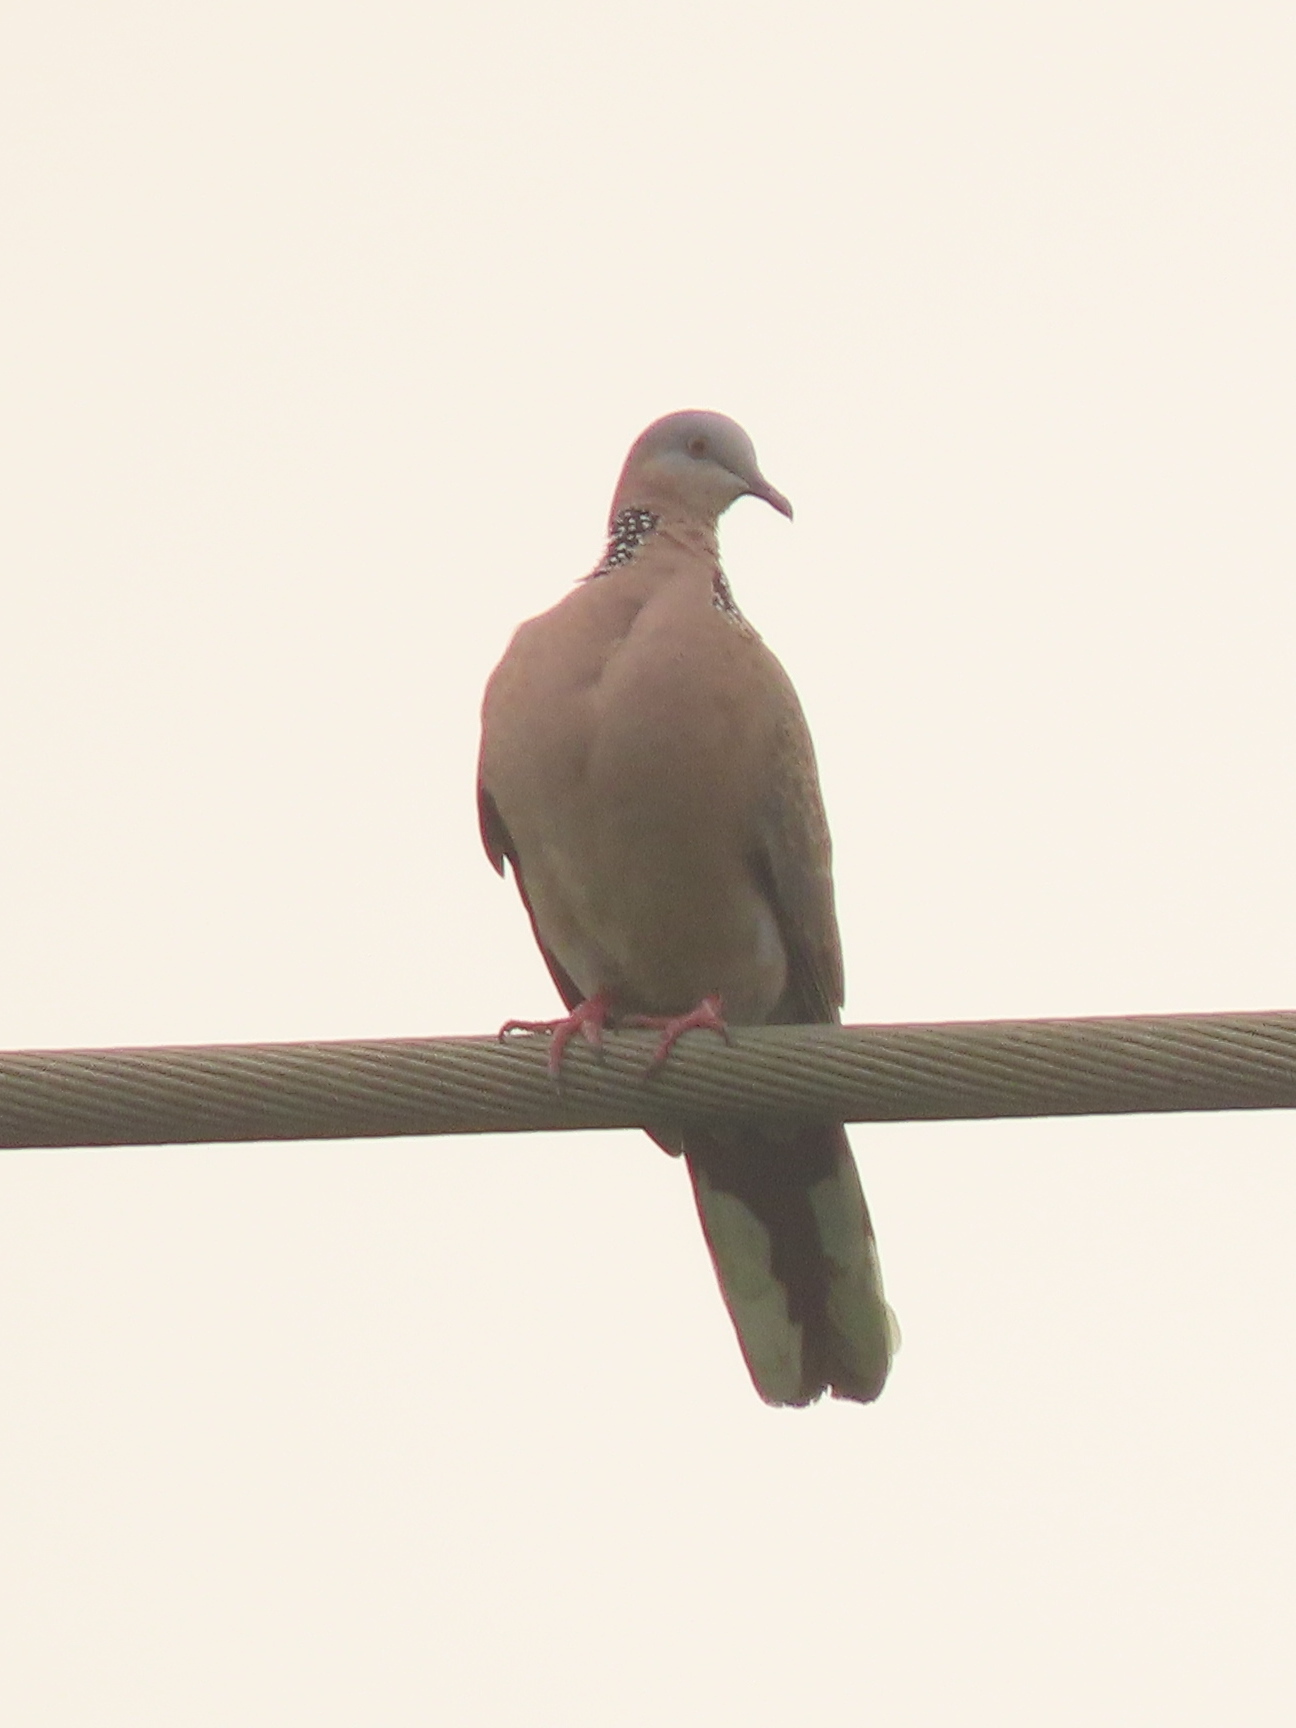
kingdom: Animalia
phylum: Chordata
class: Aves
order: Columbiformes
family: Columbidae
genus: Spilopelia
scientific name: Spilopelia chinensis
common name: Spotted dove
